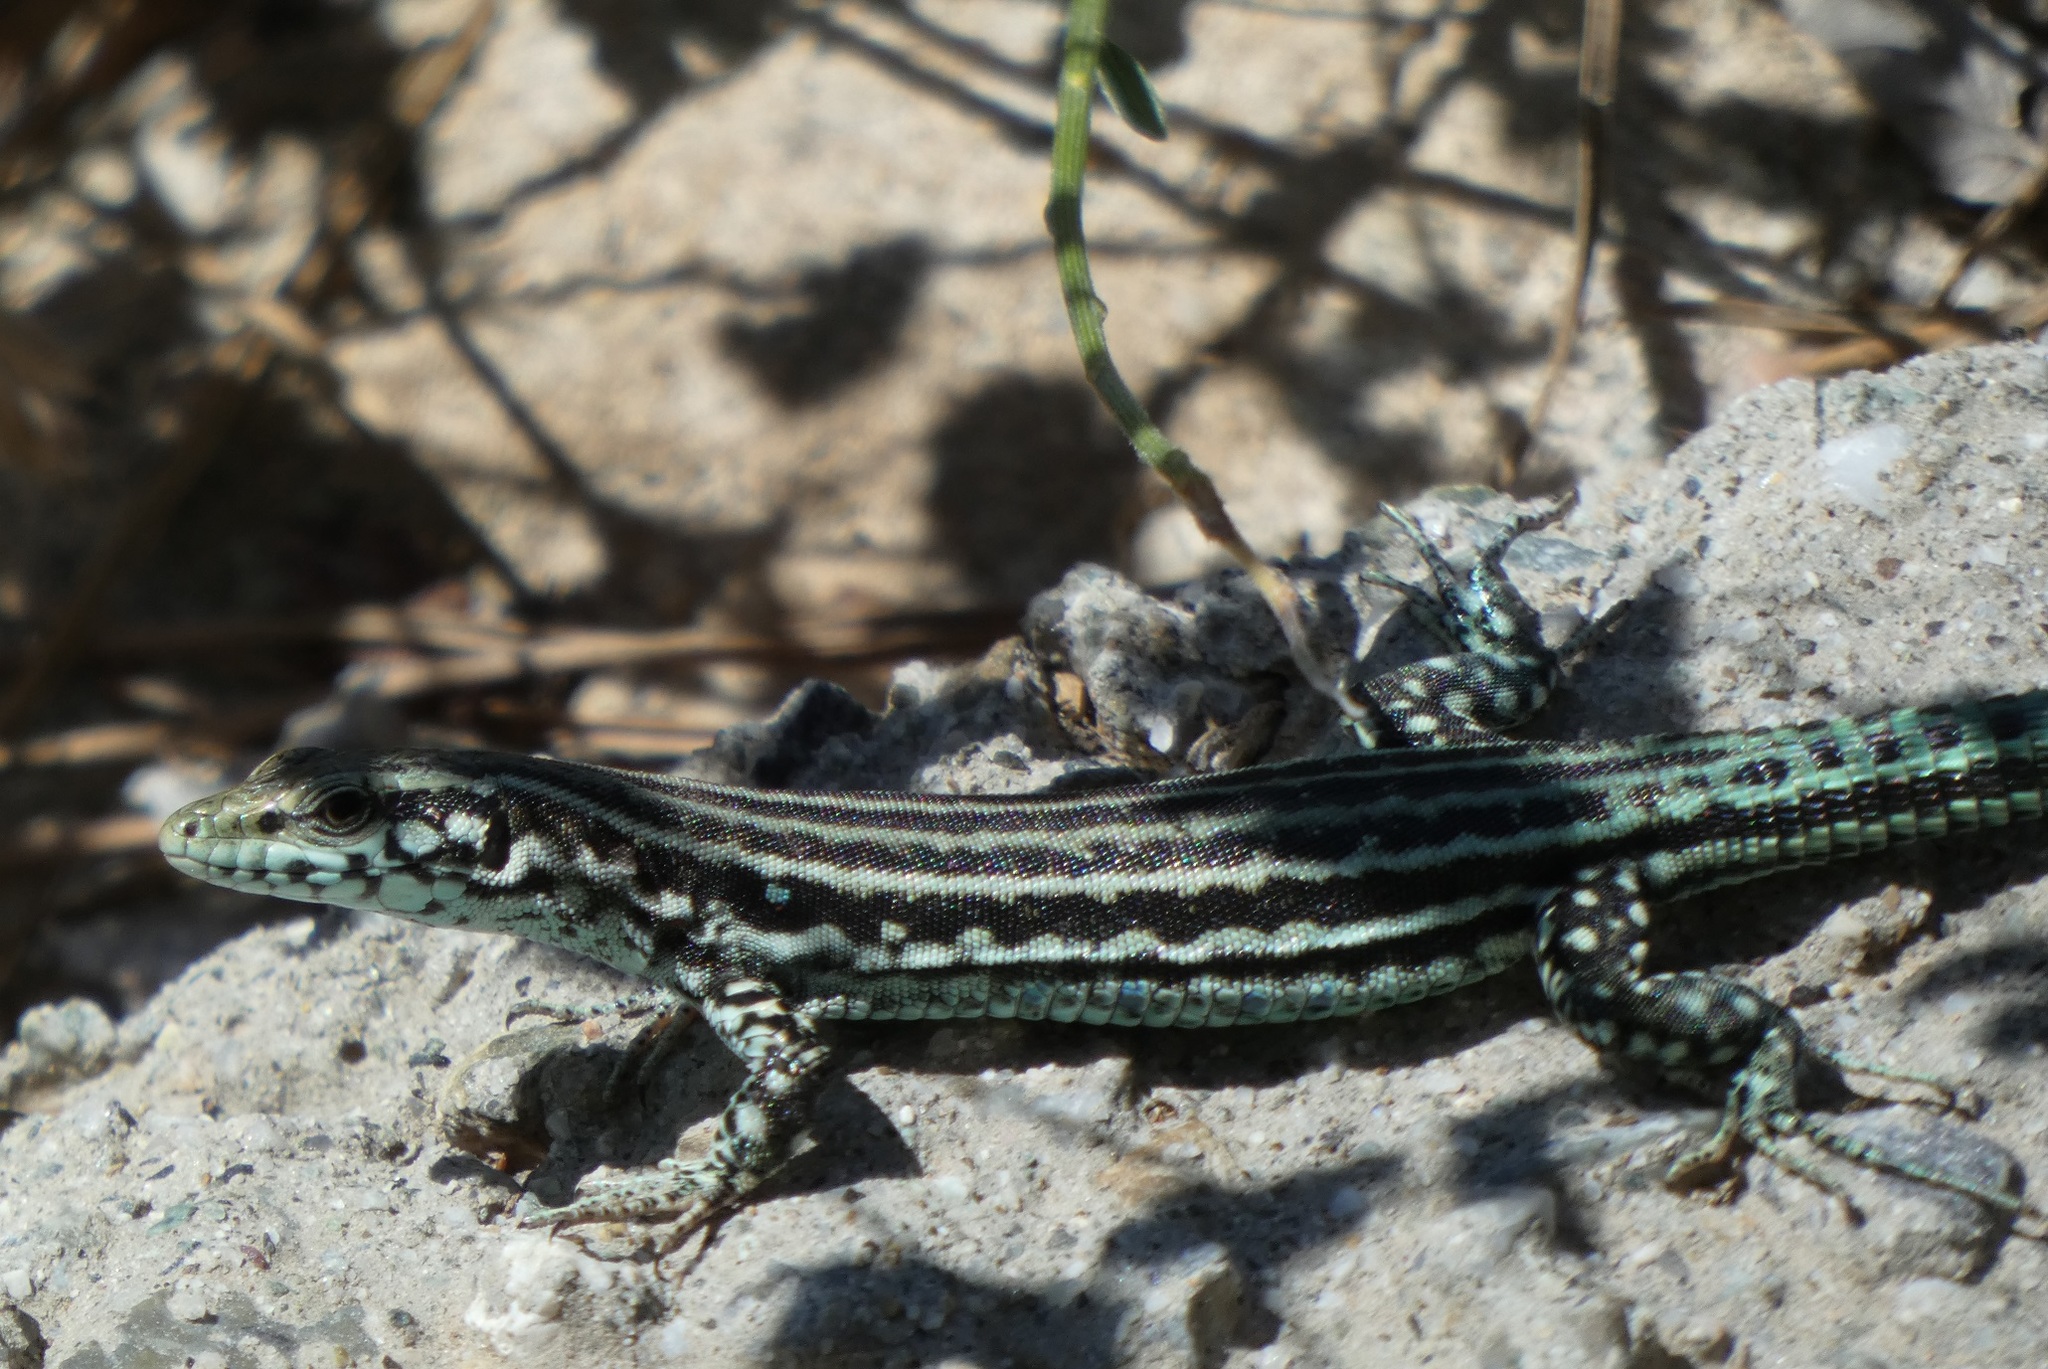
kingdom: Animalia
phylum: Chordata
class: Squamata
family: Lacertidae
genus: Podarcis
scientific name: Podarcis tiliguerta
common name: Tyrrhenian wall lizard
